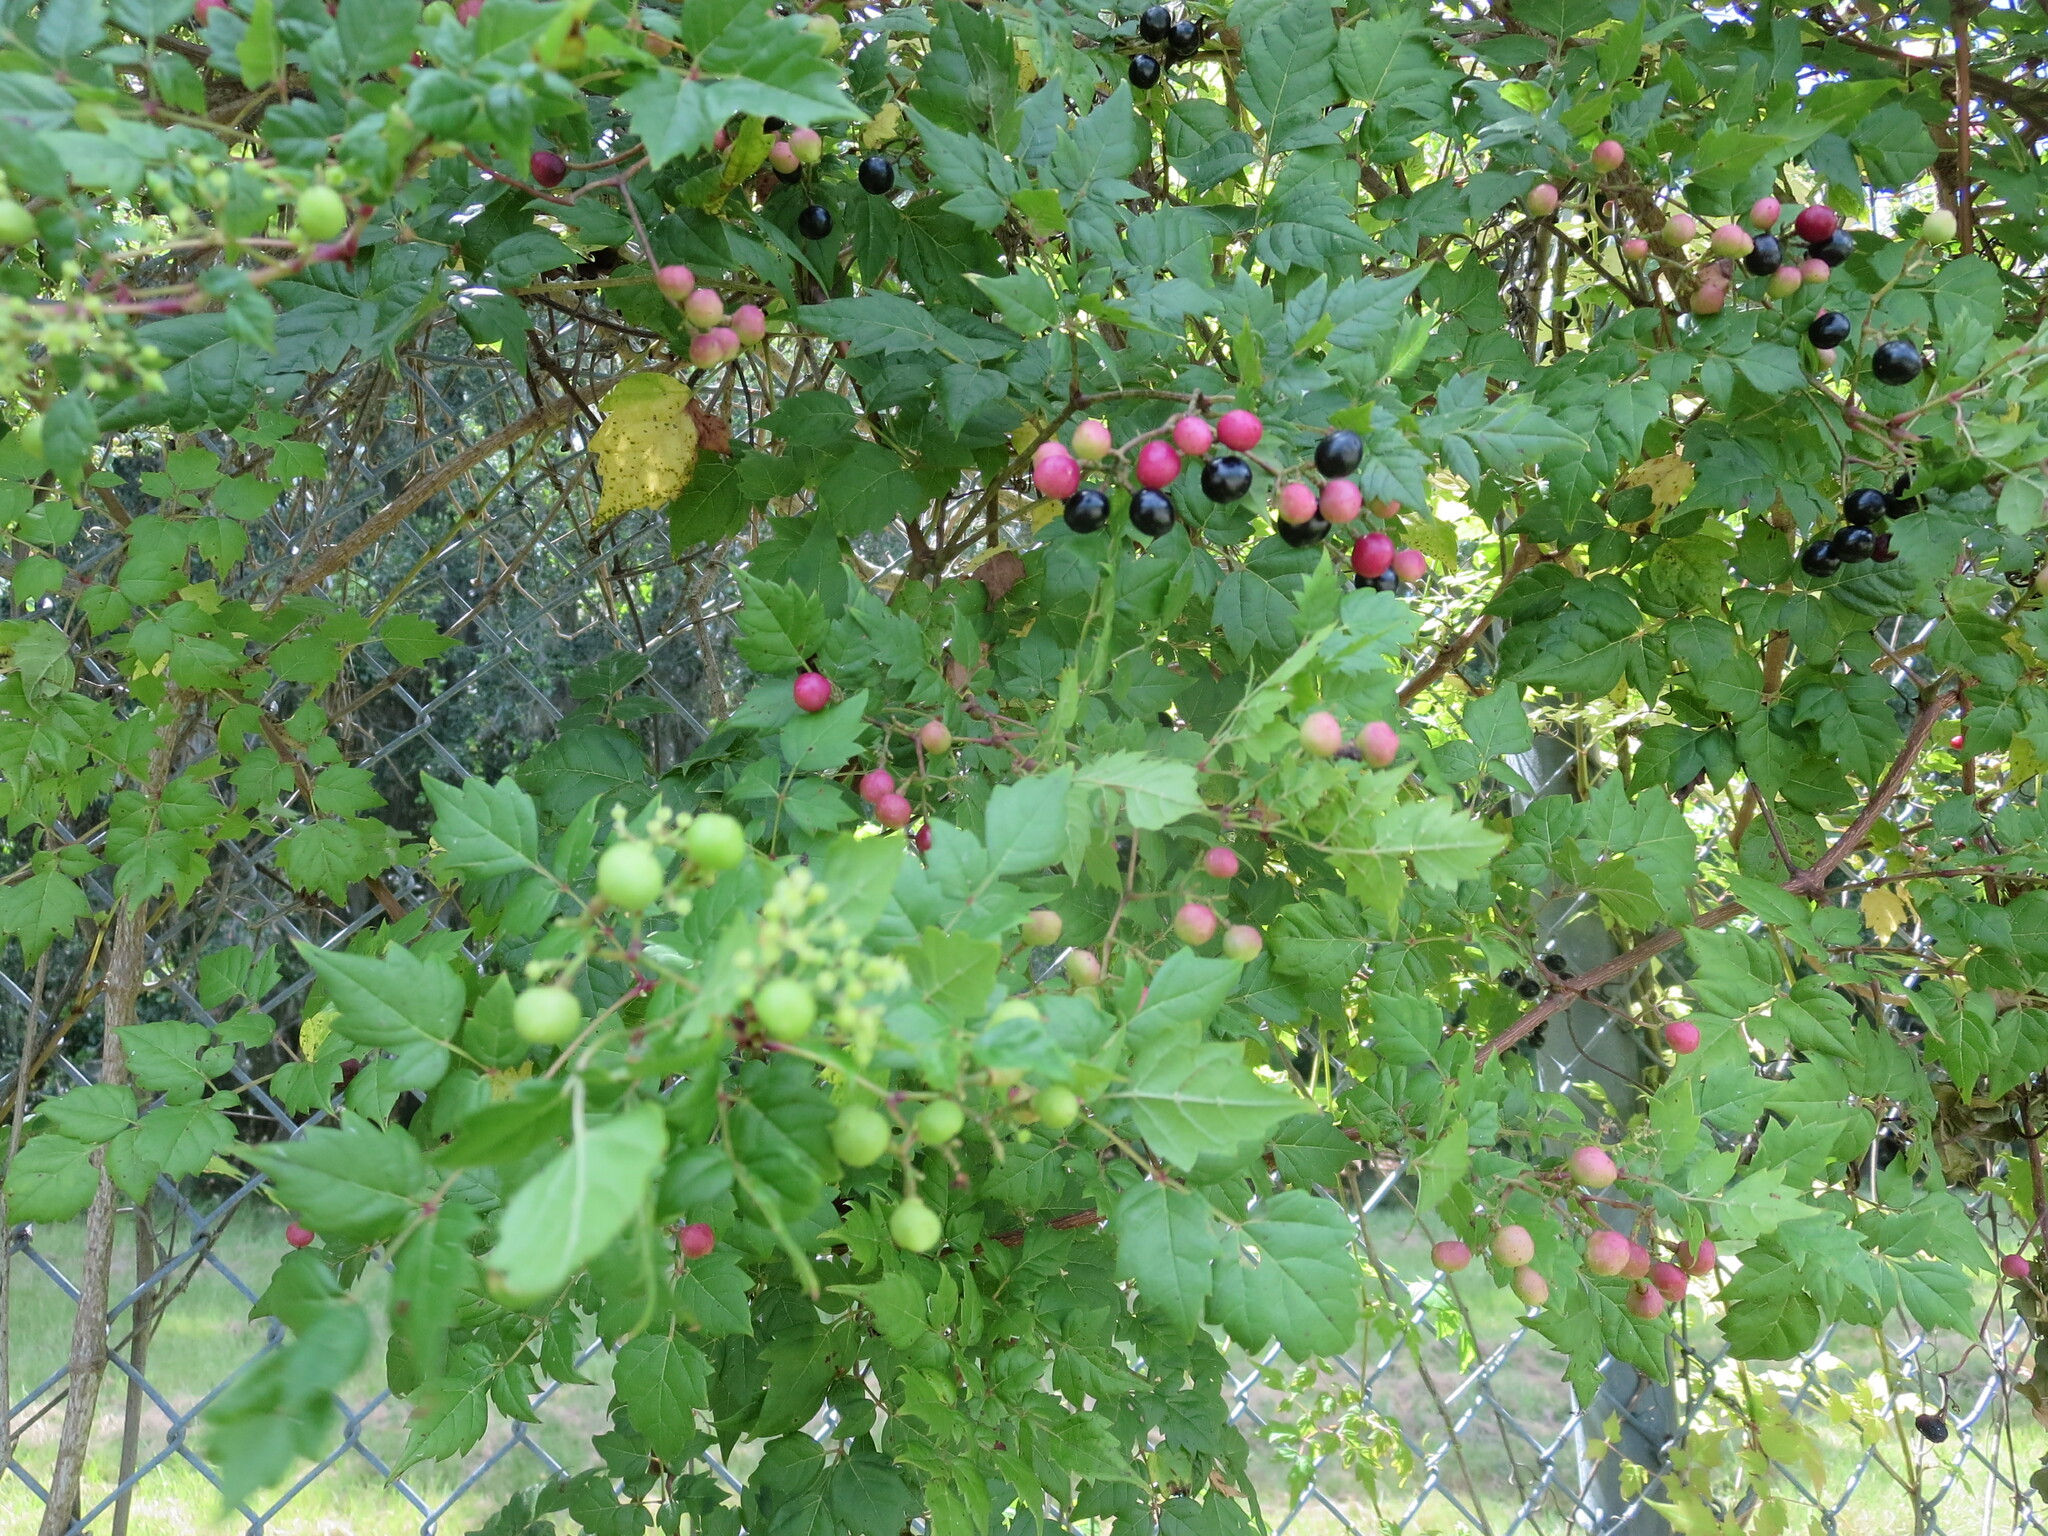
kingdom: Plantae
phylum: Tracheophyta
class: Magnoliopsida
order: Vitales
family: Vitaceae
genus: Nekemias
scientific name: Nekemias arborea
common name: Peppervine
